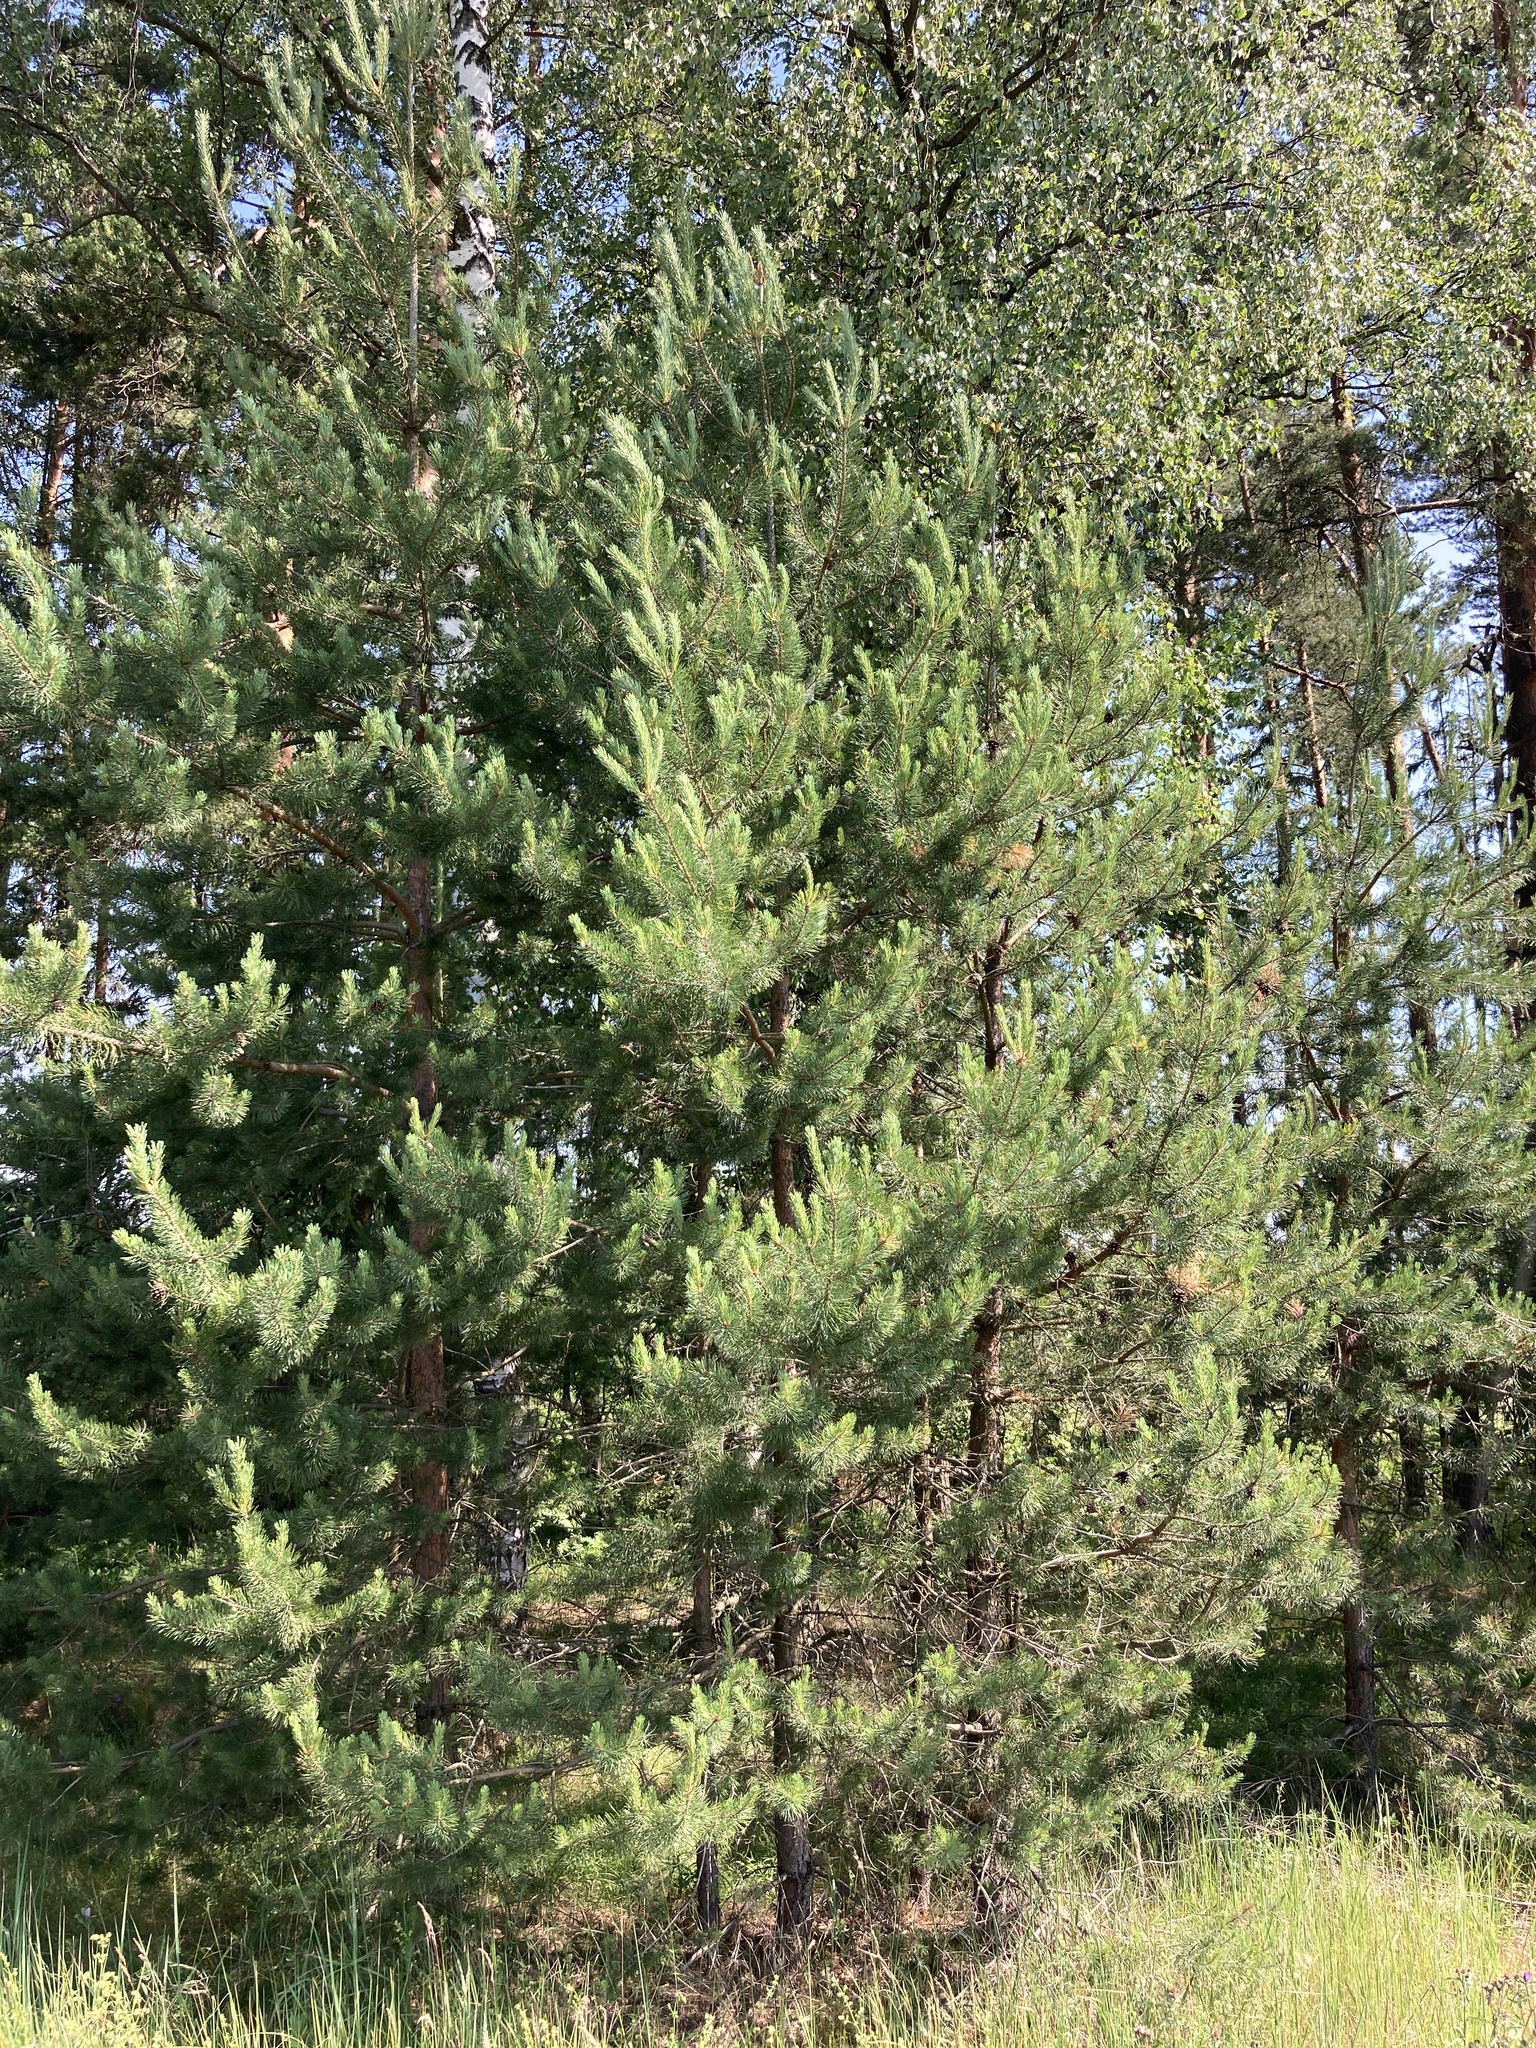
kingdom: Plantae
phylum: Tracheophyta
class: Pinopsida
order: Pinales
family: Pinaceae
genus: Pinus
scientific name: Pinus sylvestris
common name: Scots pine
